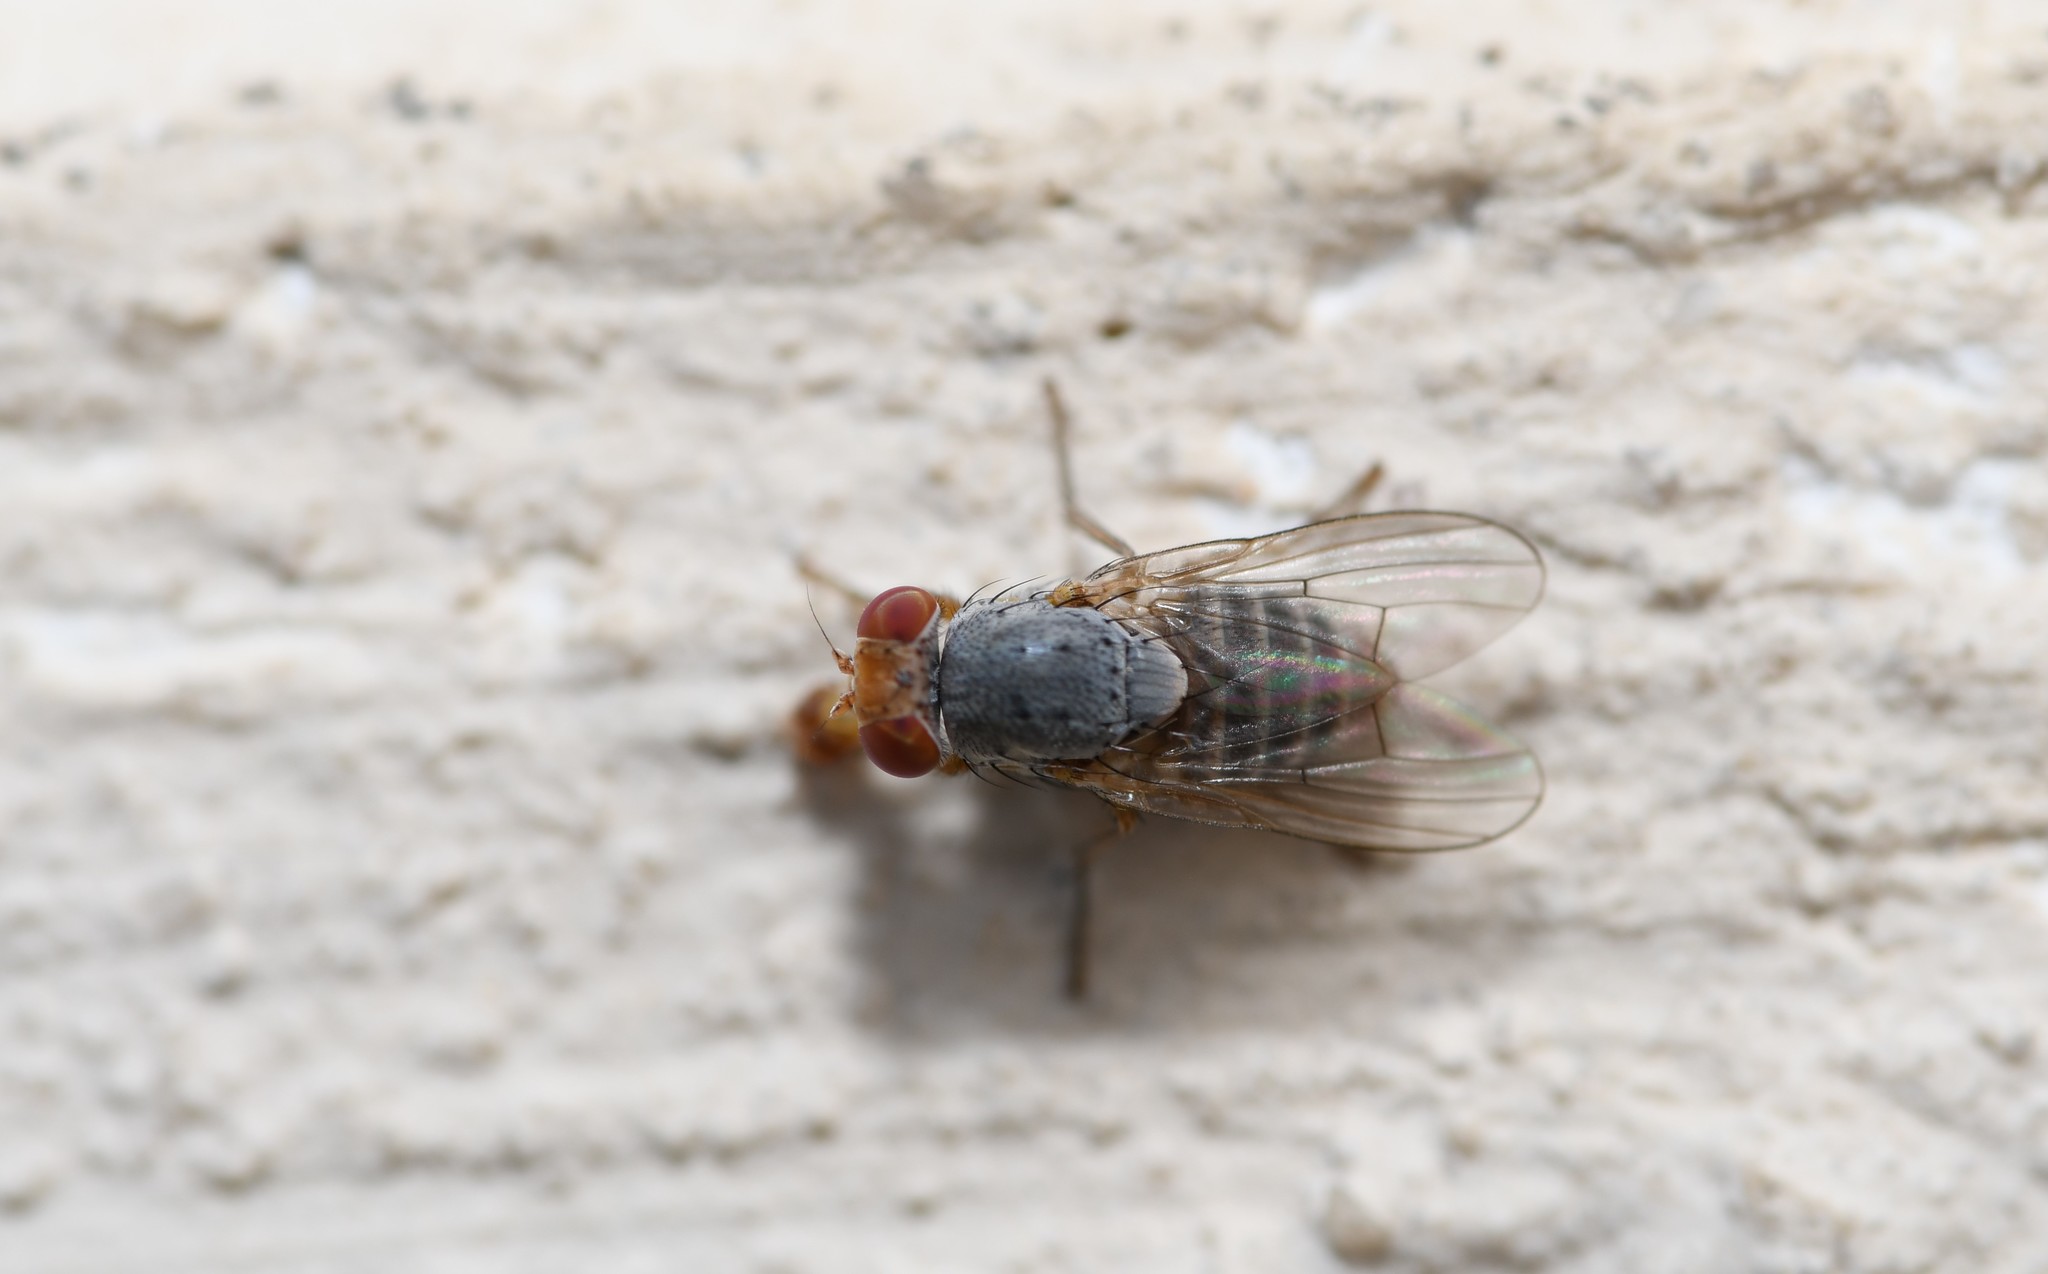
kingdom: Animalia
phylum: Arthropoda
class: Insecta
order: Diptera
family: Lauxaniidae
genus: Prosopomyia
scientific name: Prosopomyia pallida
